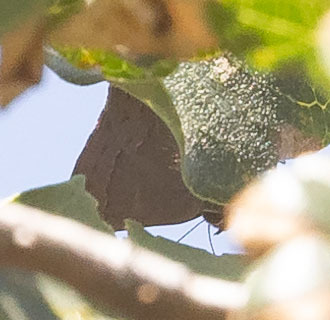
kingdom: Animalia
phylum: Arthropoda
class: Insecta
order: Lepidoptera
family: Lycaenidae
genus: Strymon
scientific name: Strymon saepium
